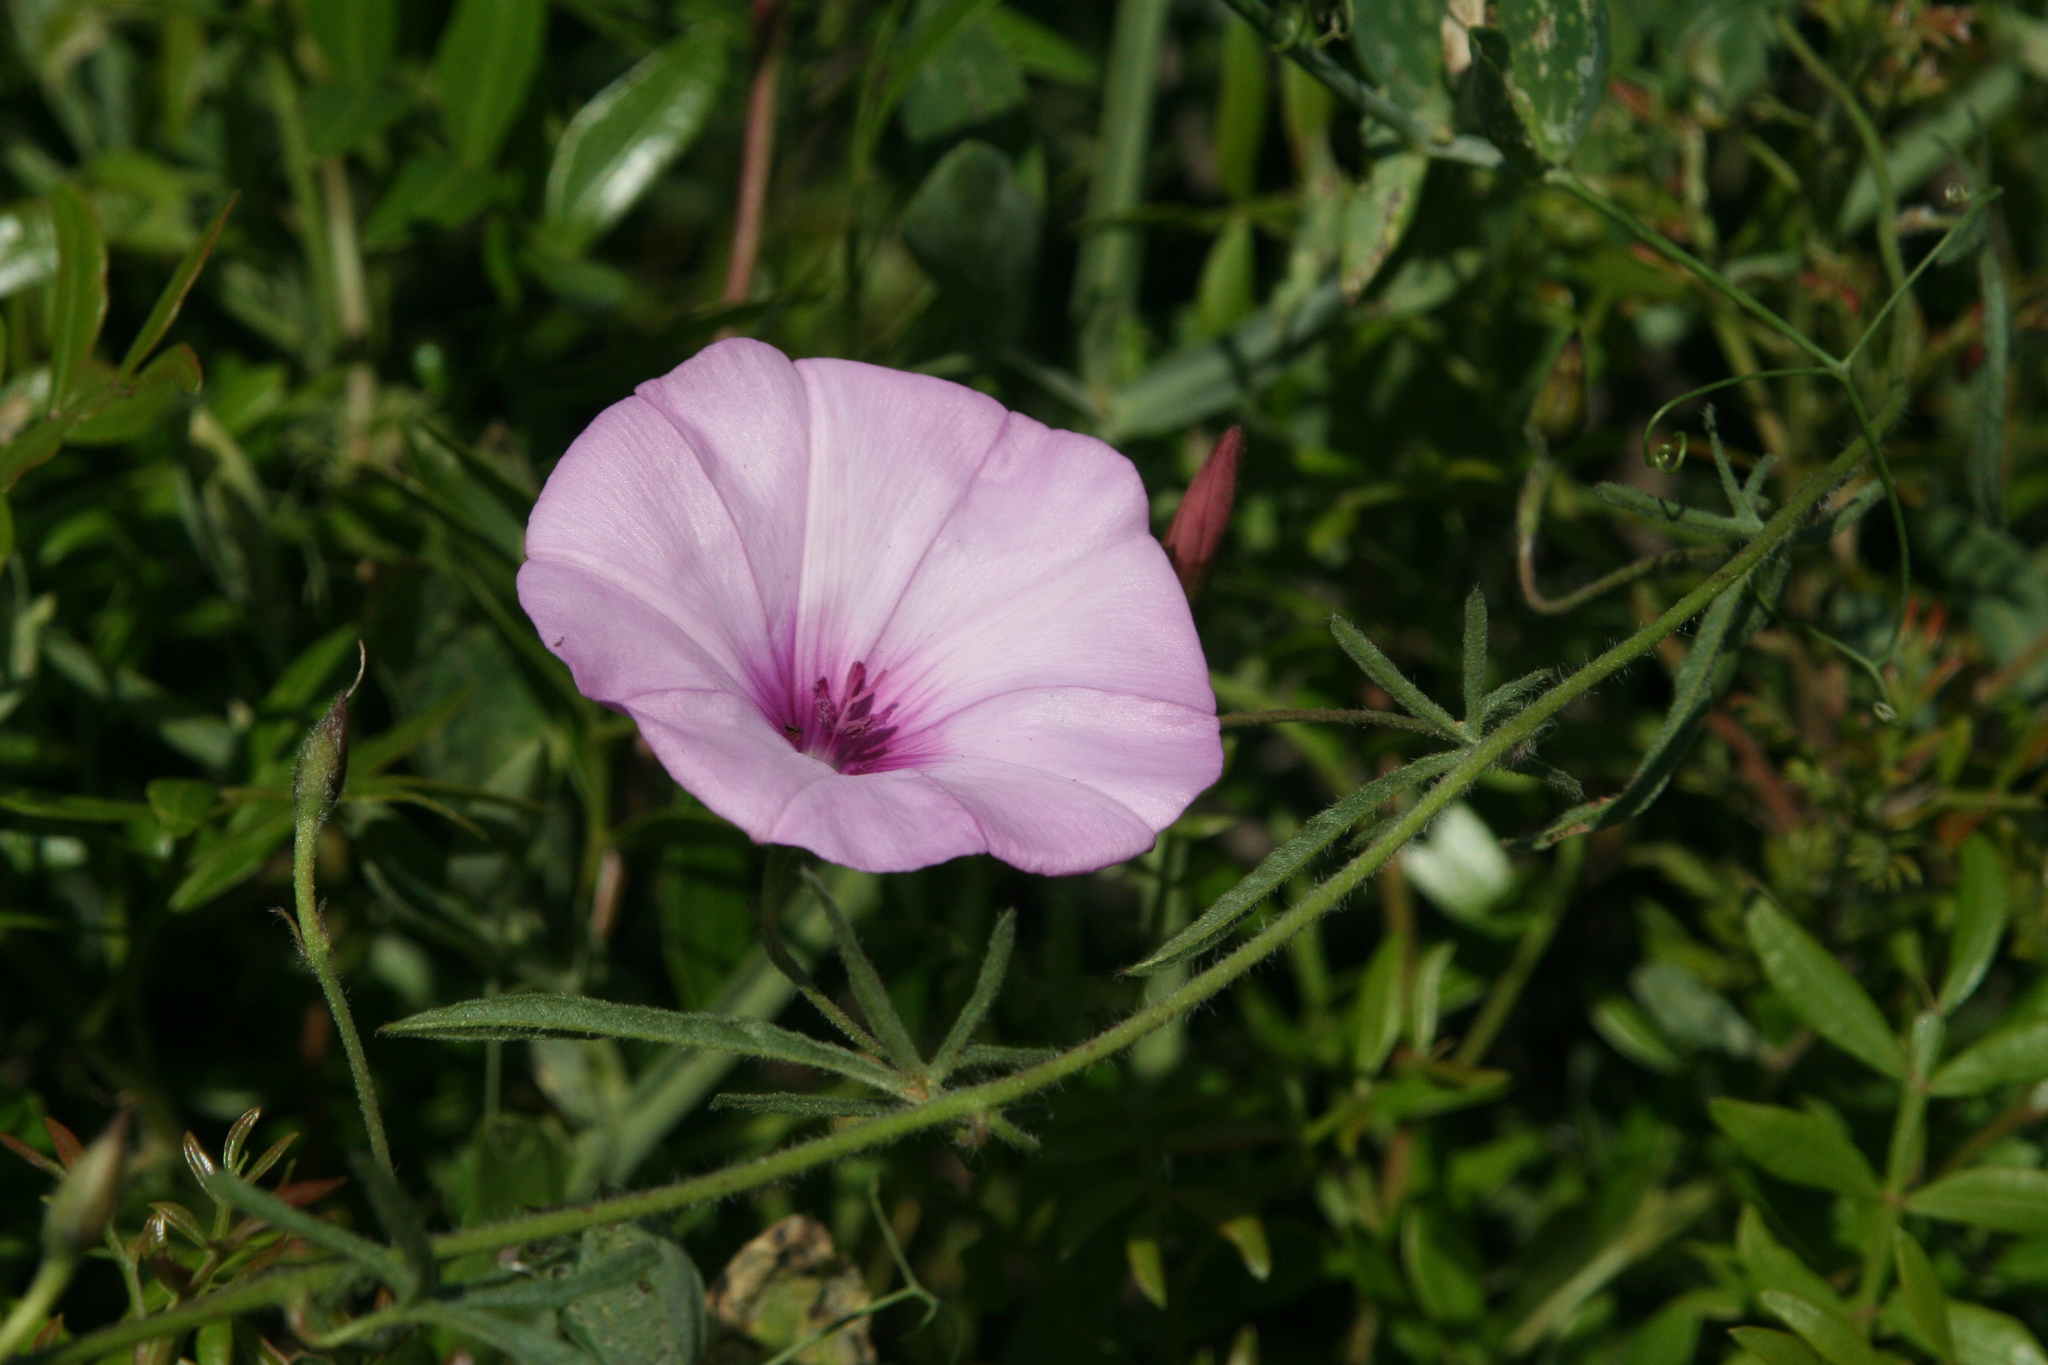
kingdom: Plantae
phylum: Tracheophyta
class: Magnoliopsida
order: Solanales
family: Convolvulaceae
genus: Convolvulus
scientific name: Convolvulus althaeoides
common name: Mallow bindweed
